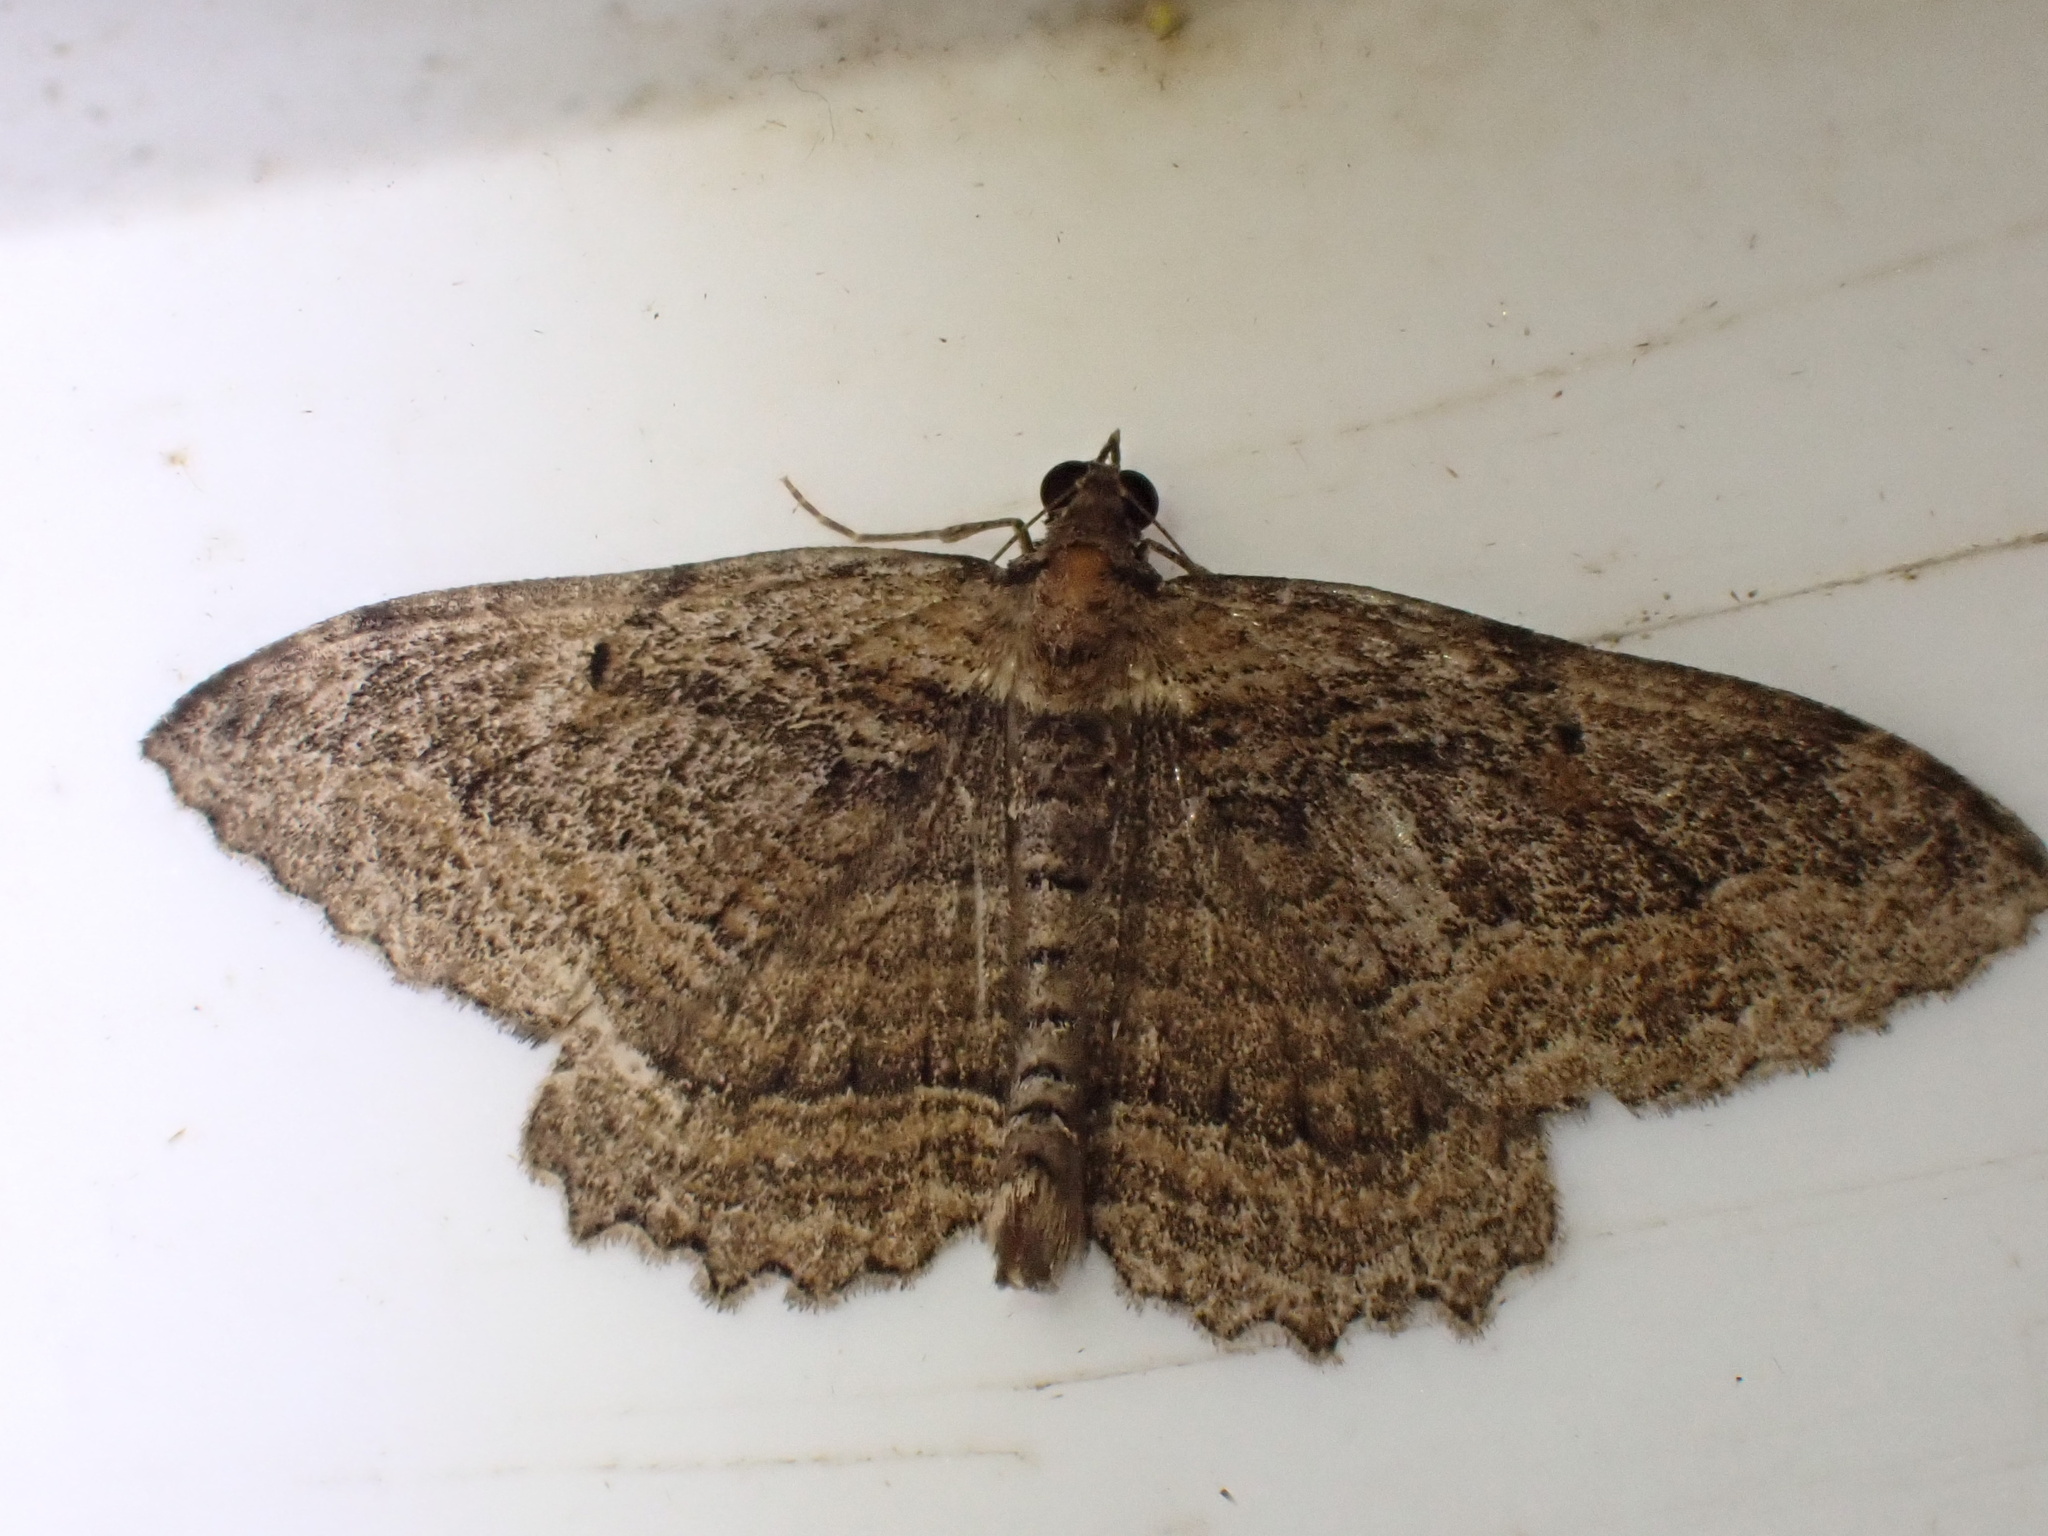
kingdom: Animalia
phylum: Arthropoda
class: Insecta
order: Lepidoptera
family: Geometridae
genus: Philereme
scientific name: Philereme transversata
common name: Dark umber
